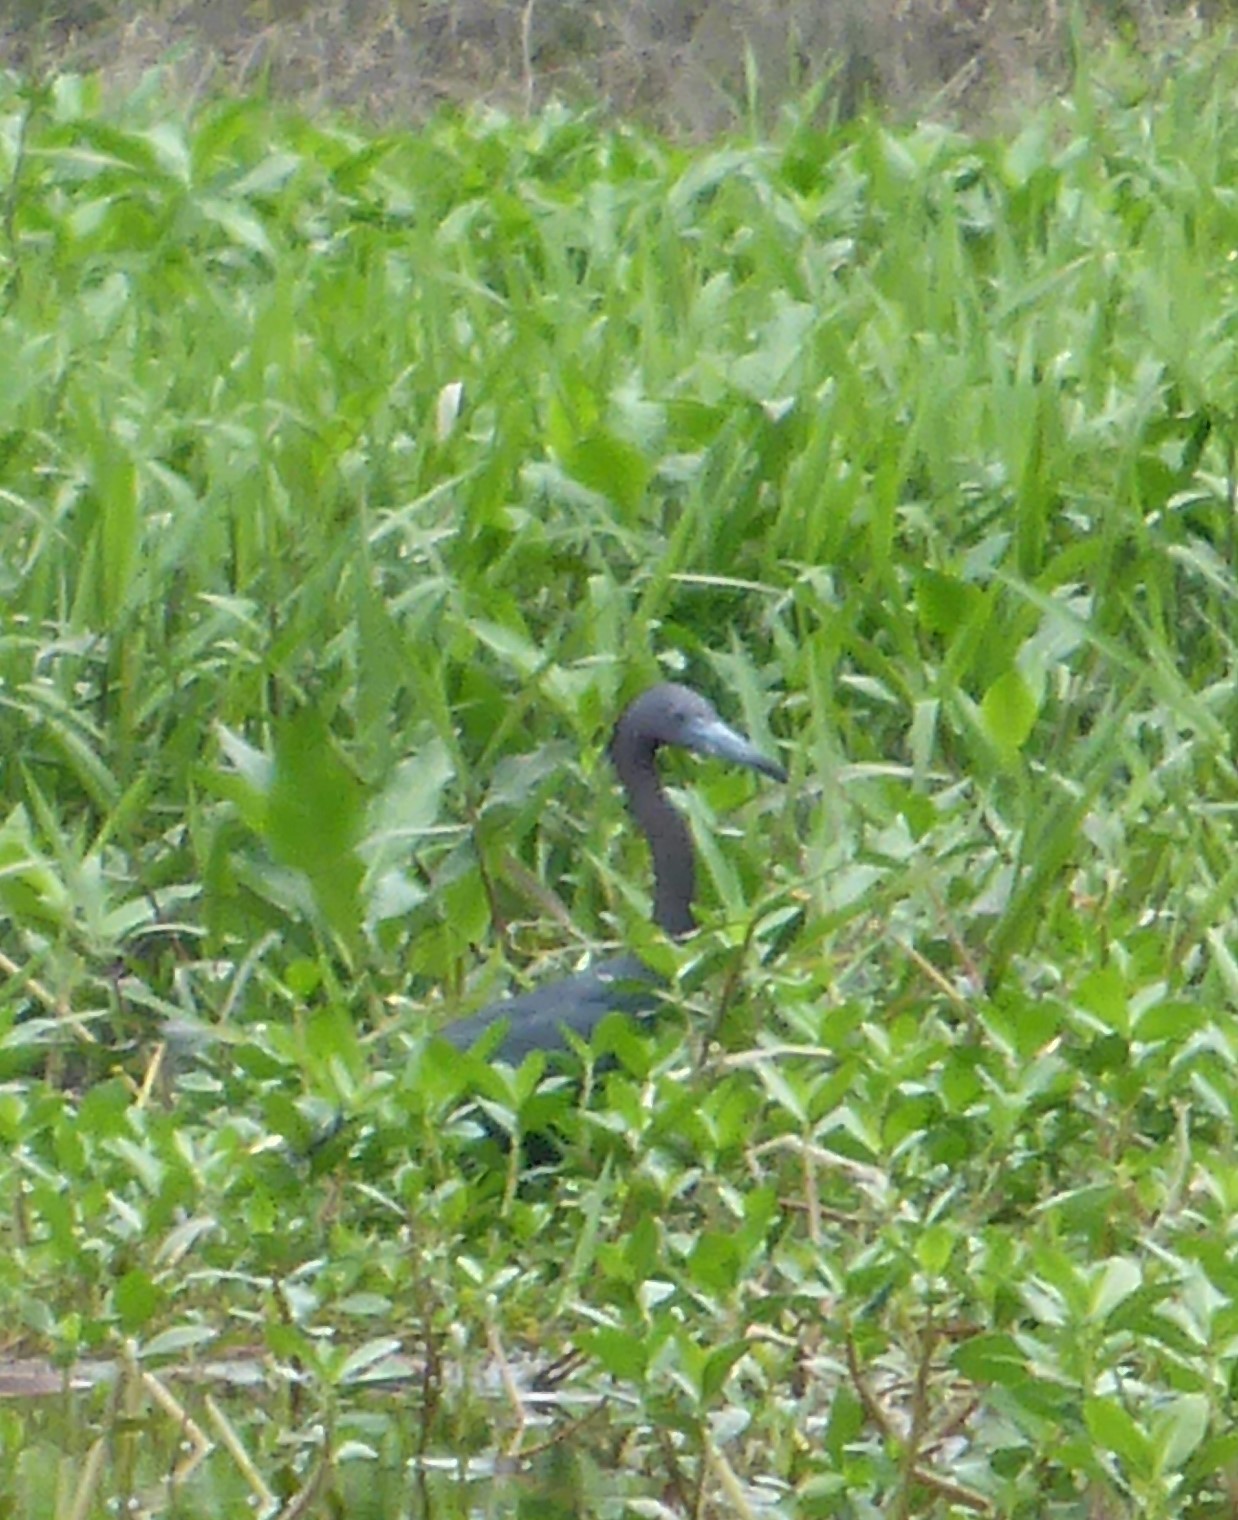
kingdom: Animalia
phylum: Chordata
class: Aves
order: Pelecaniformes
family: Ardeidae
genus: Egretta
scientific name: Egretta caerulea
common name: Little blue heron
